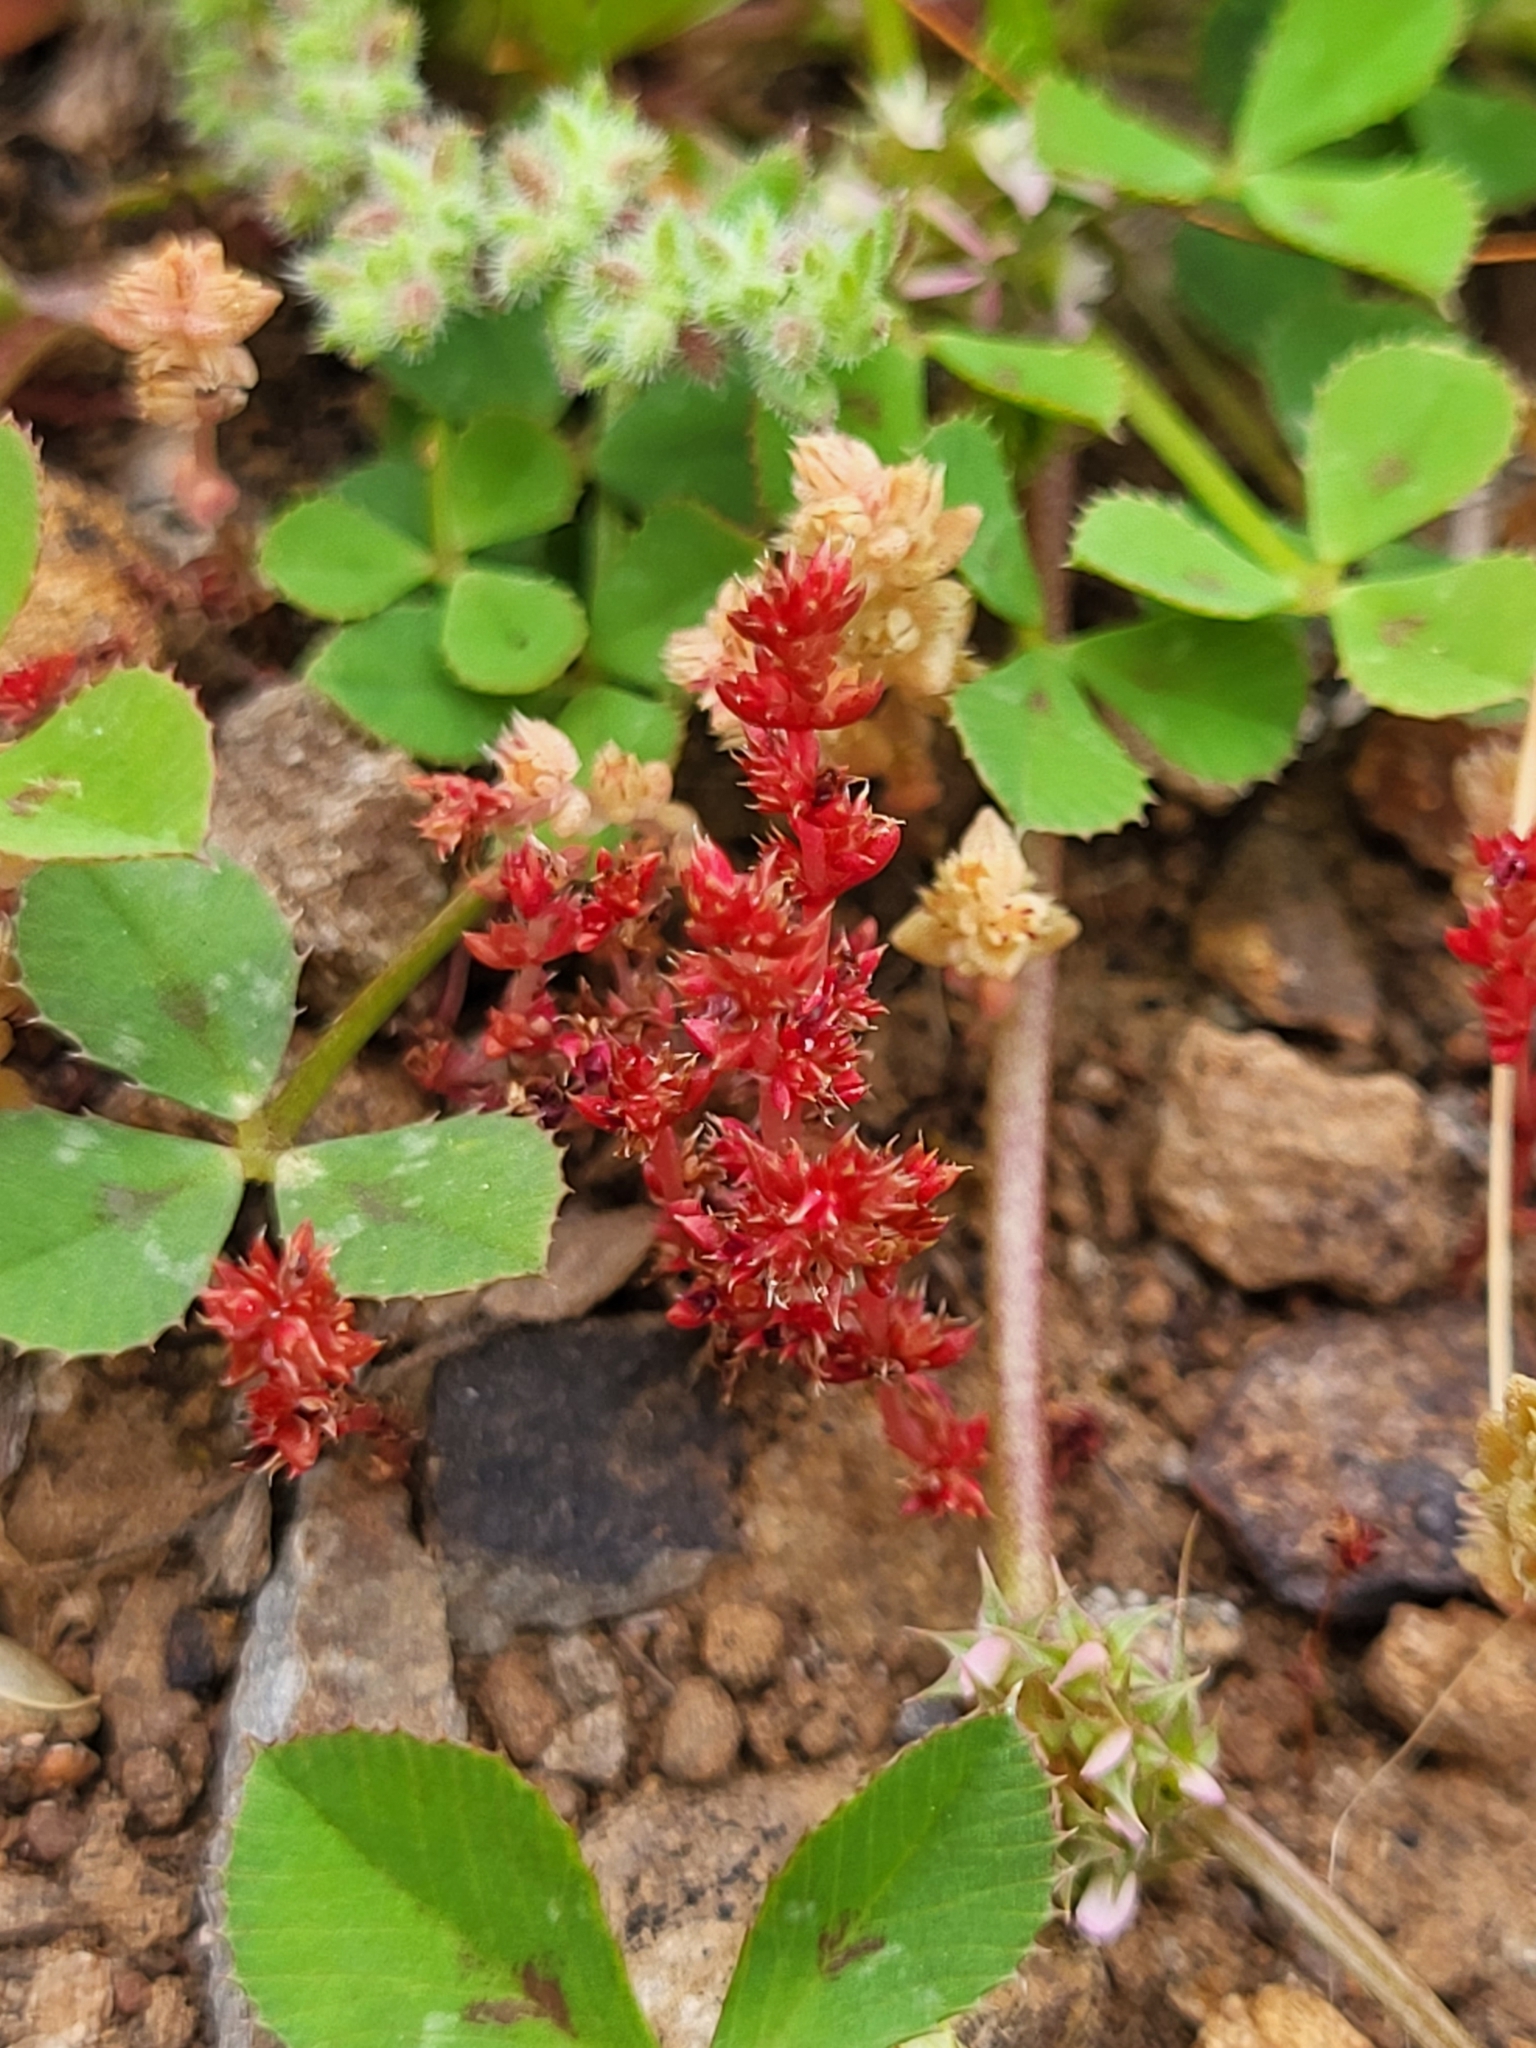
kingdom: Plantae
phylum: Tracheophyta
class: Magnoliopsida
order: Saxifragales
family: Crassulaceae
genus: Crassula
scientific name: Crassula tillaea
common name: Mossy stonecrop
